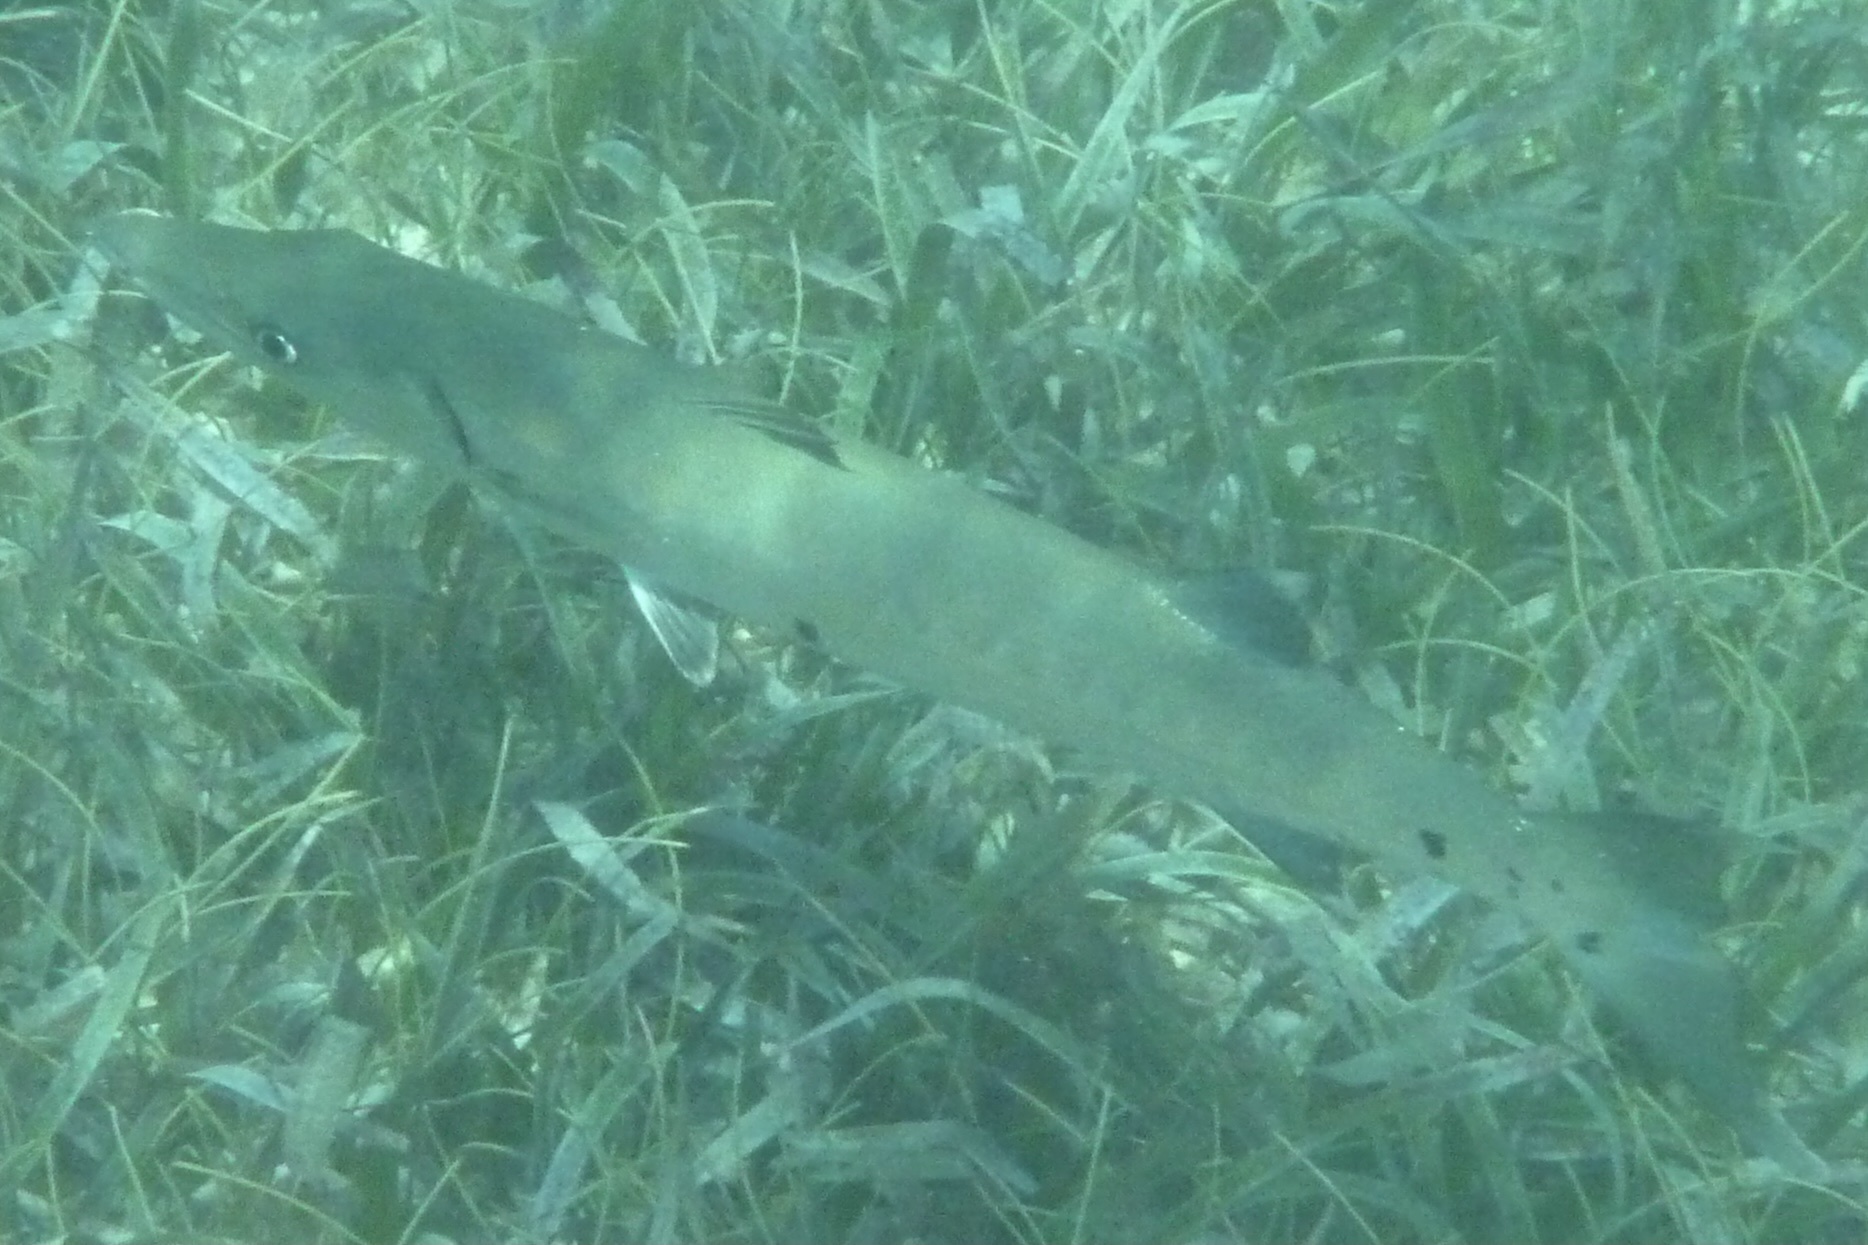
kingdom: Animalia
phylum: Chordata
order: Perciformes
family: Sphyraenidae
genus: Sphyraena
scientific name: Sphyraena barracuda
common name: Great barracuda
